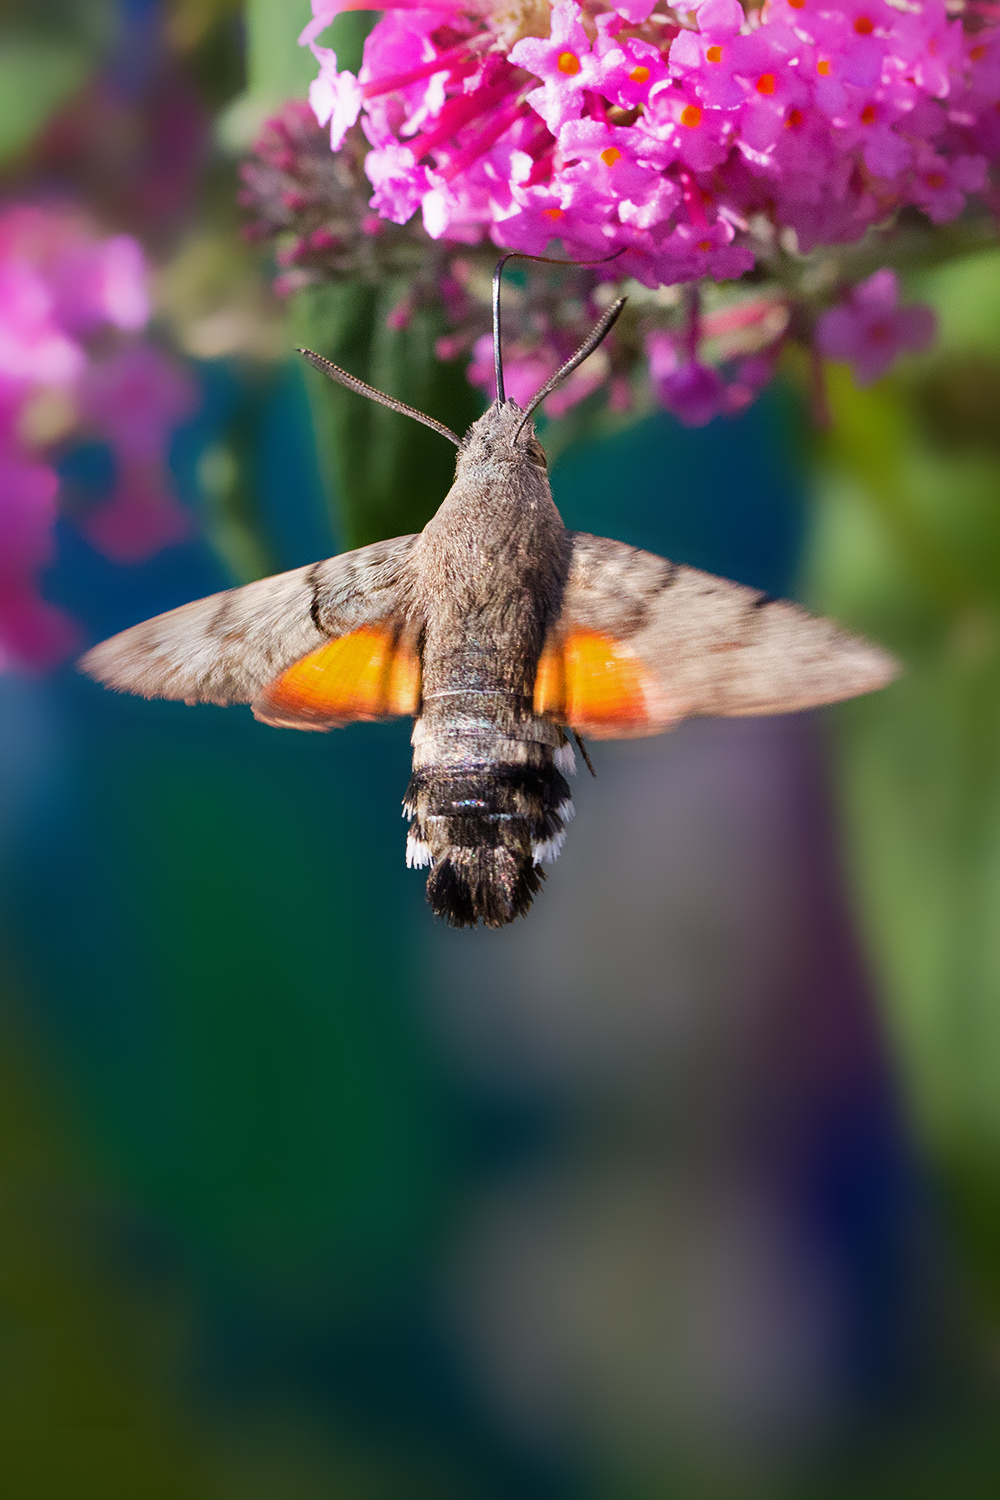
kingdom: Animalia
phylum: Arthropoda
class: Insecta
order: Lepidoptera
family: Sphingidae
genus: Macroglossum
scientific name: Macroglossum stellatarum
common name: Humming-bird hawk-moth
